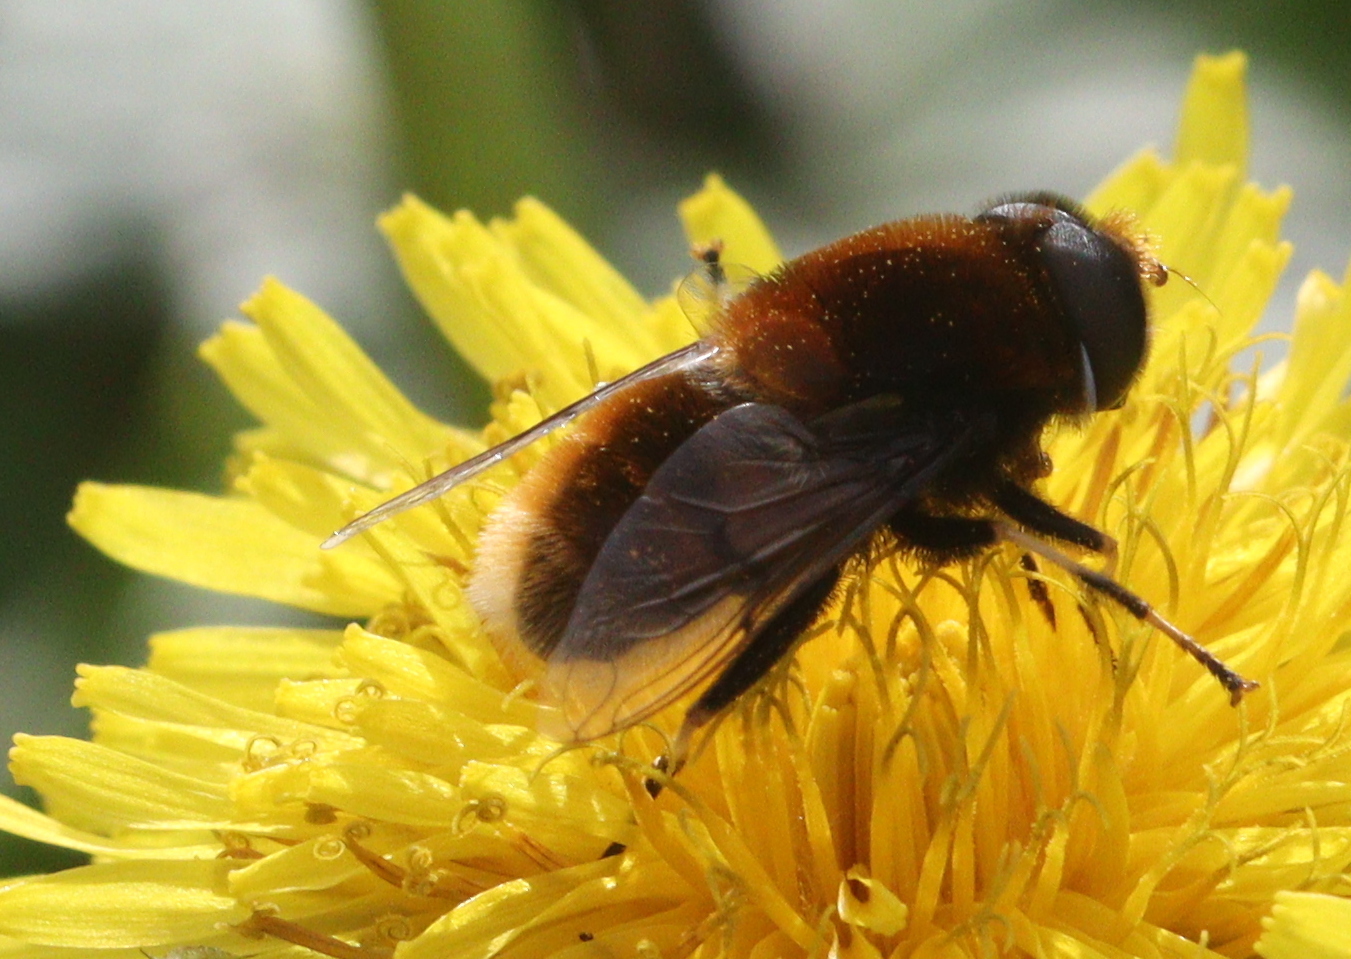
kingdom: Animalia
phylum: Arthropoda
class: Insecta
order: Diptera
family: Syrphidae
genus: Eristalis
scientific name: Eristalis intricaria
